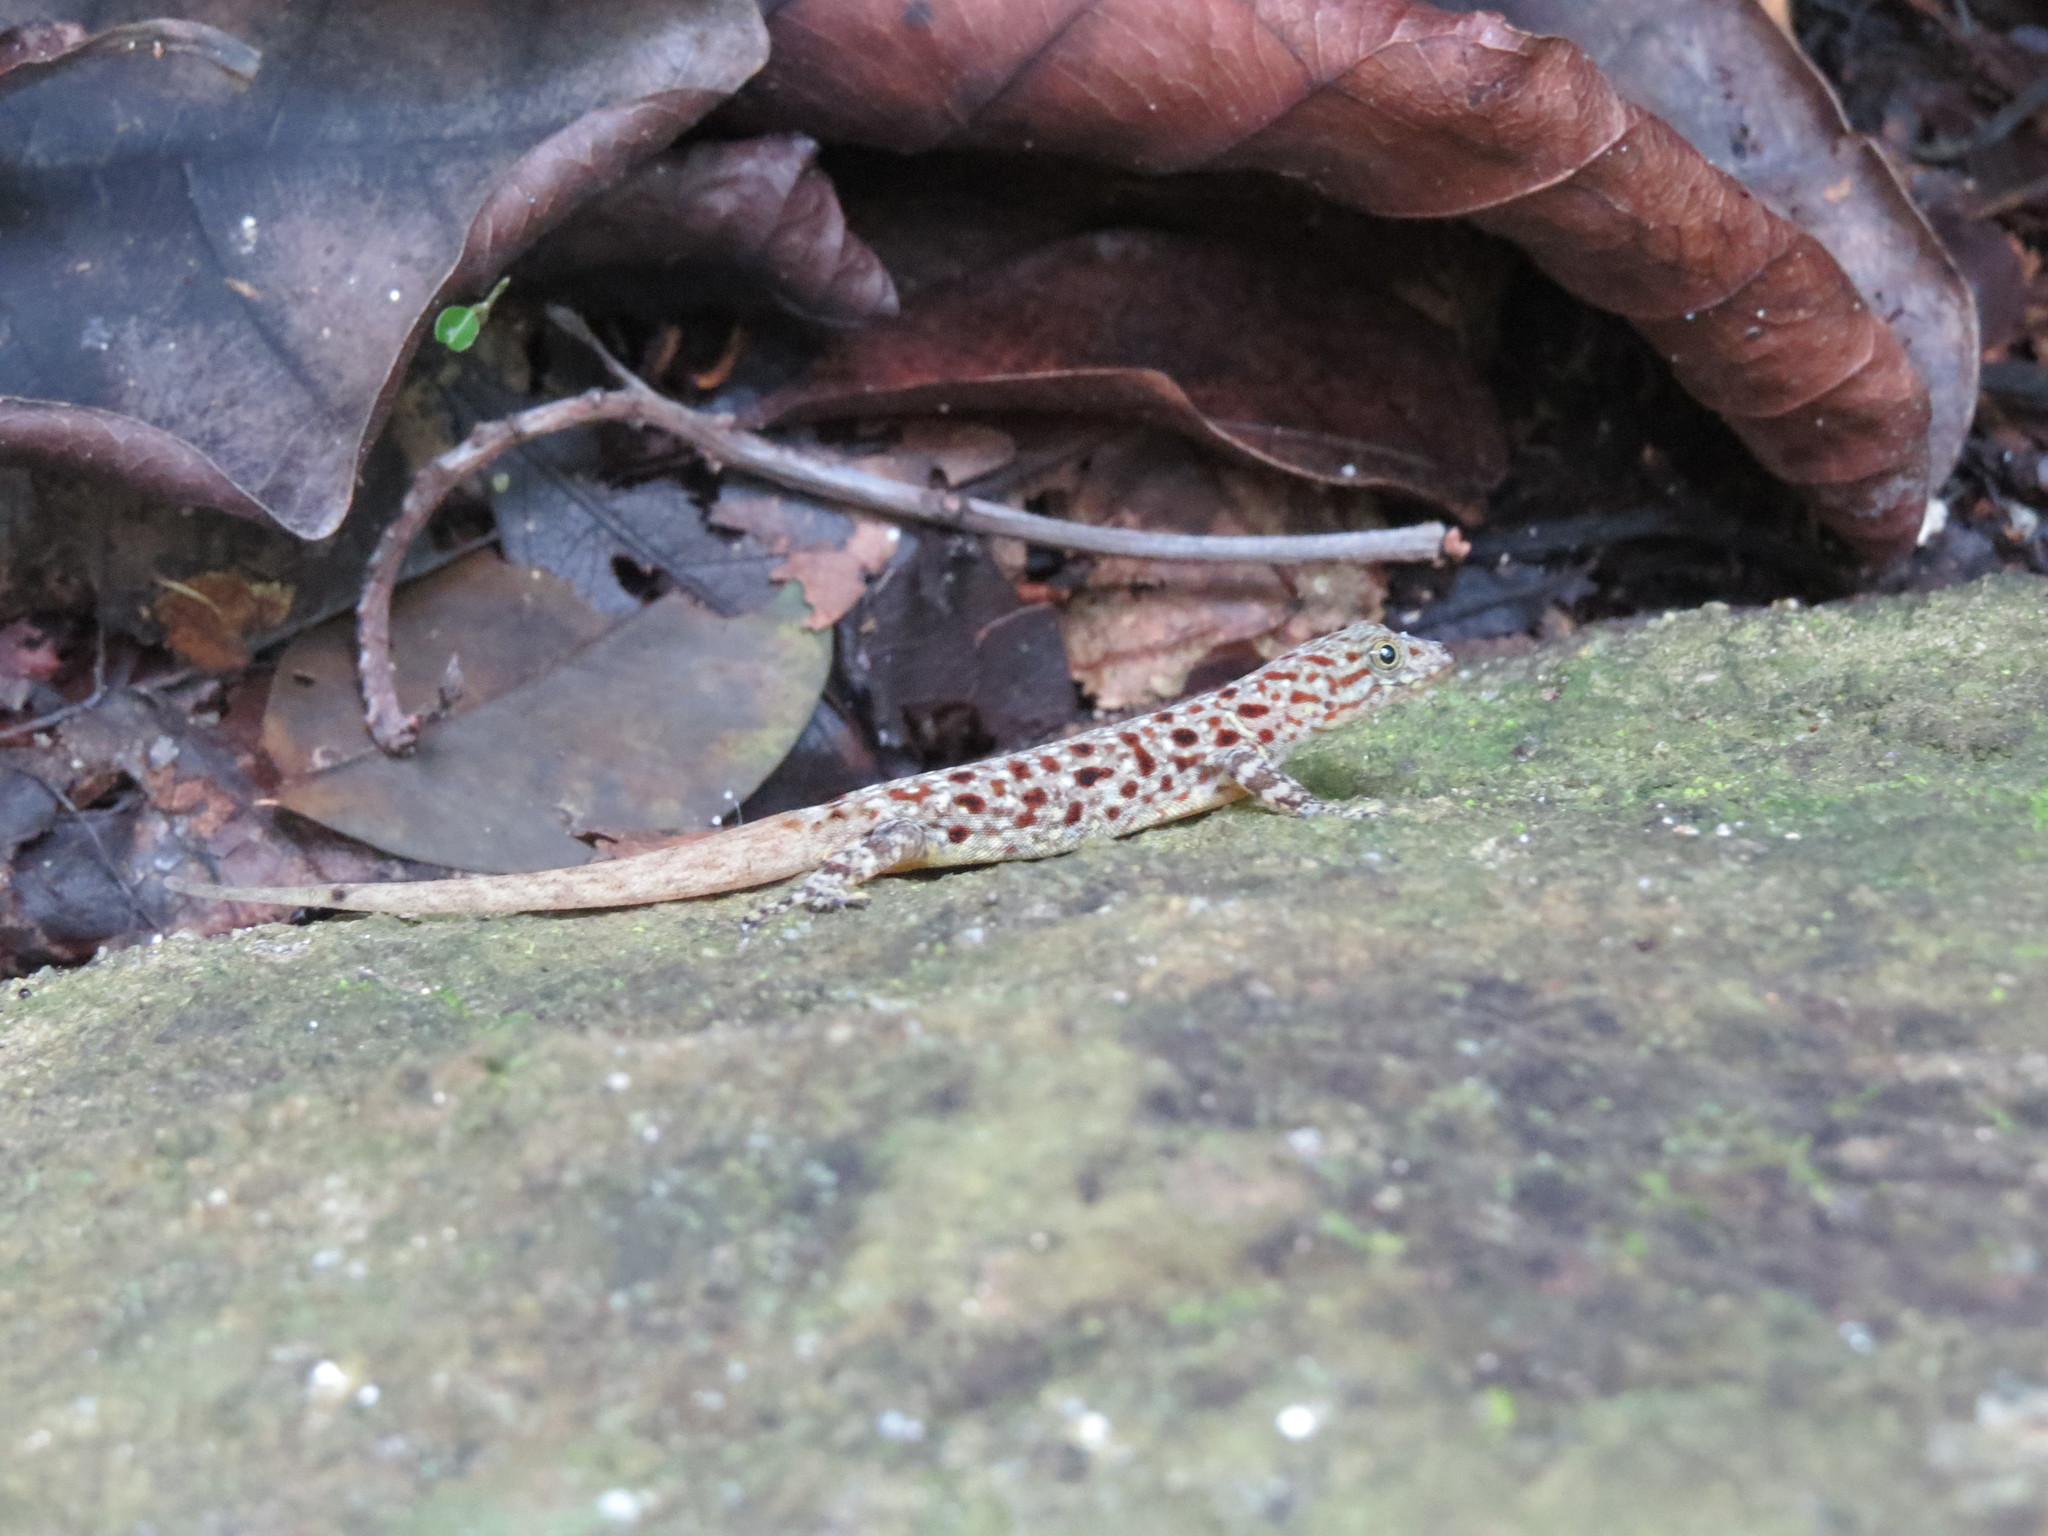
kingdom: Animalia
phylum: Chordata
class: Squamata
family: Sphaerodactylidae
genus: Gonatodes
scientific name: Gonatodes vittatus
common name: Wiegmann's striped gecko
